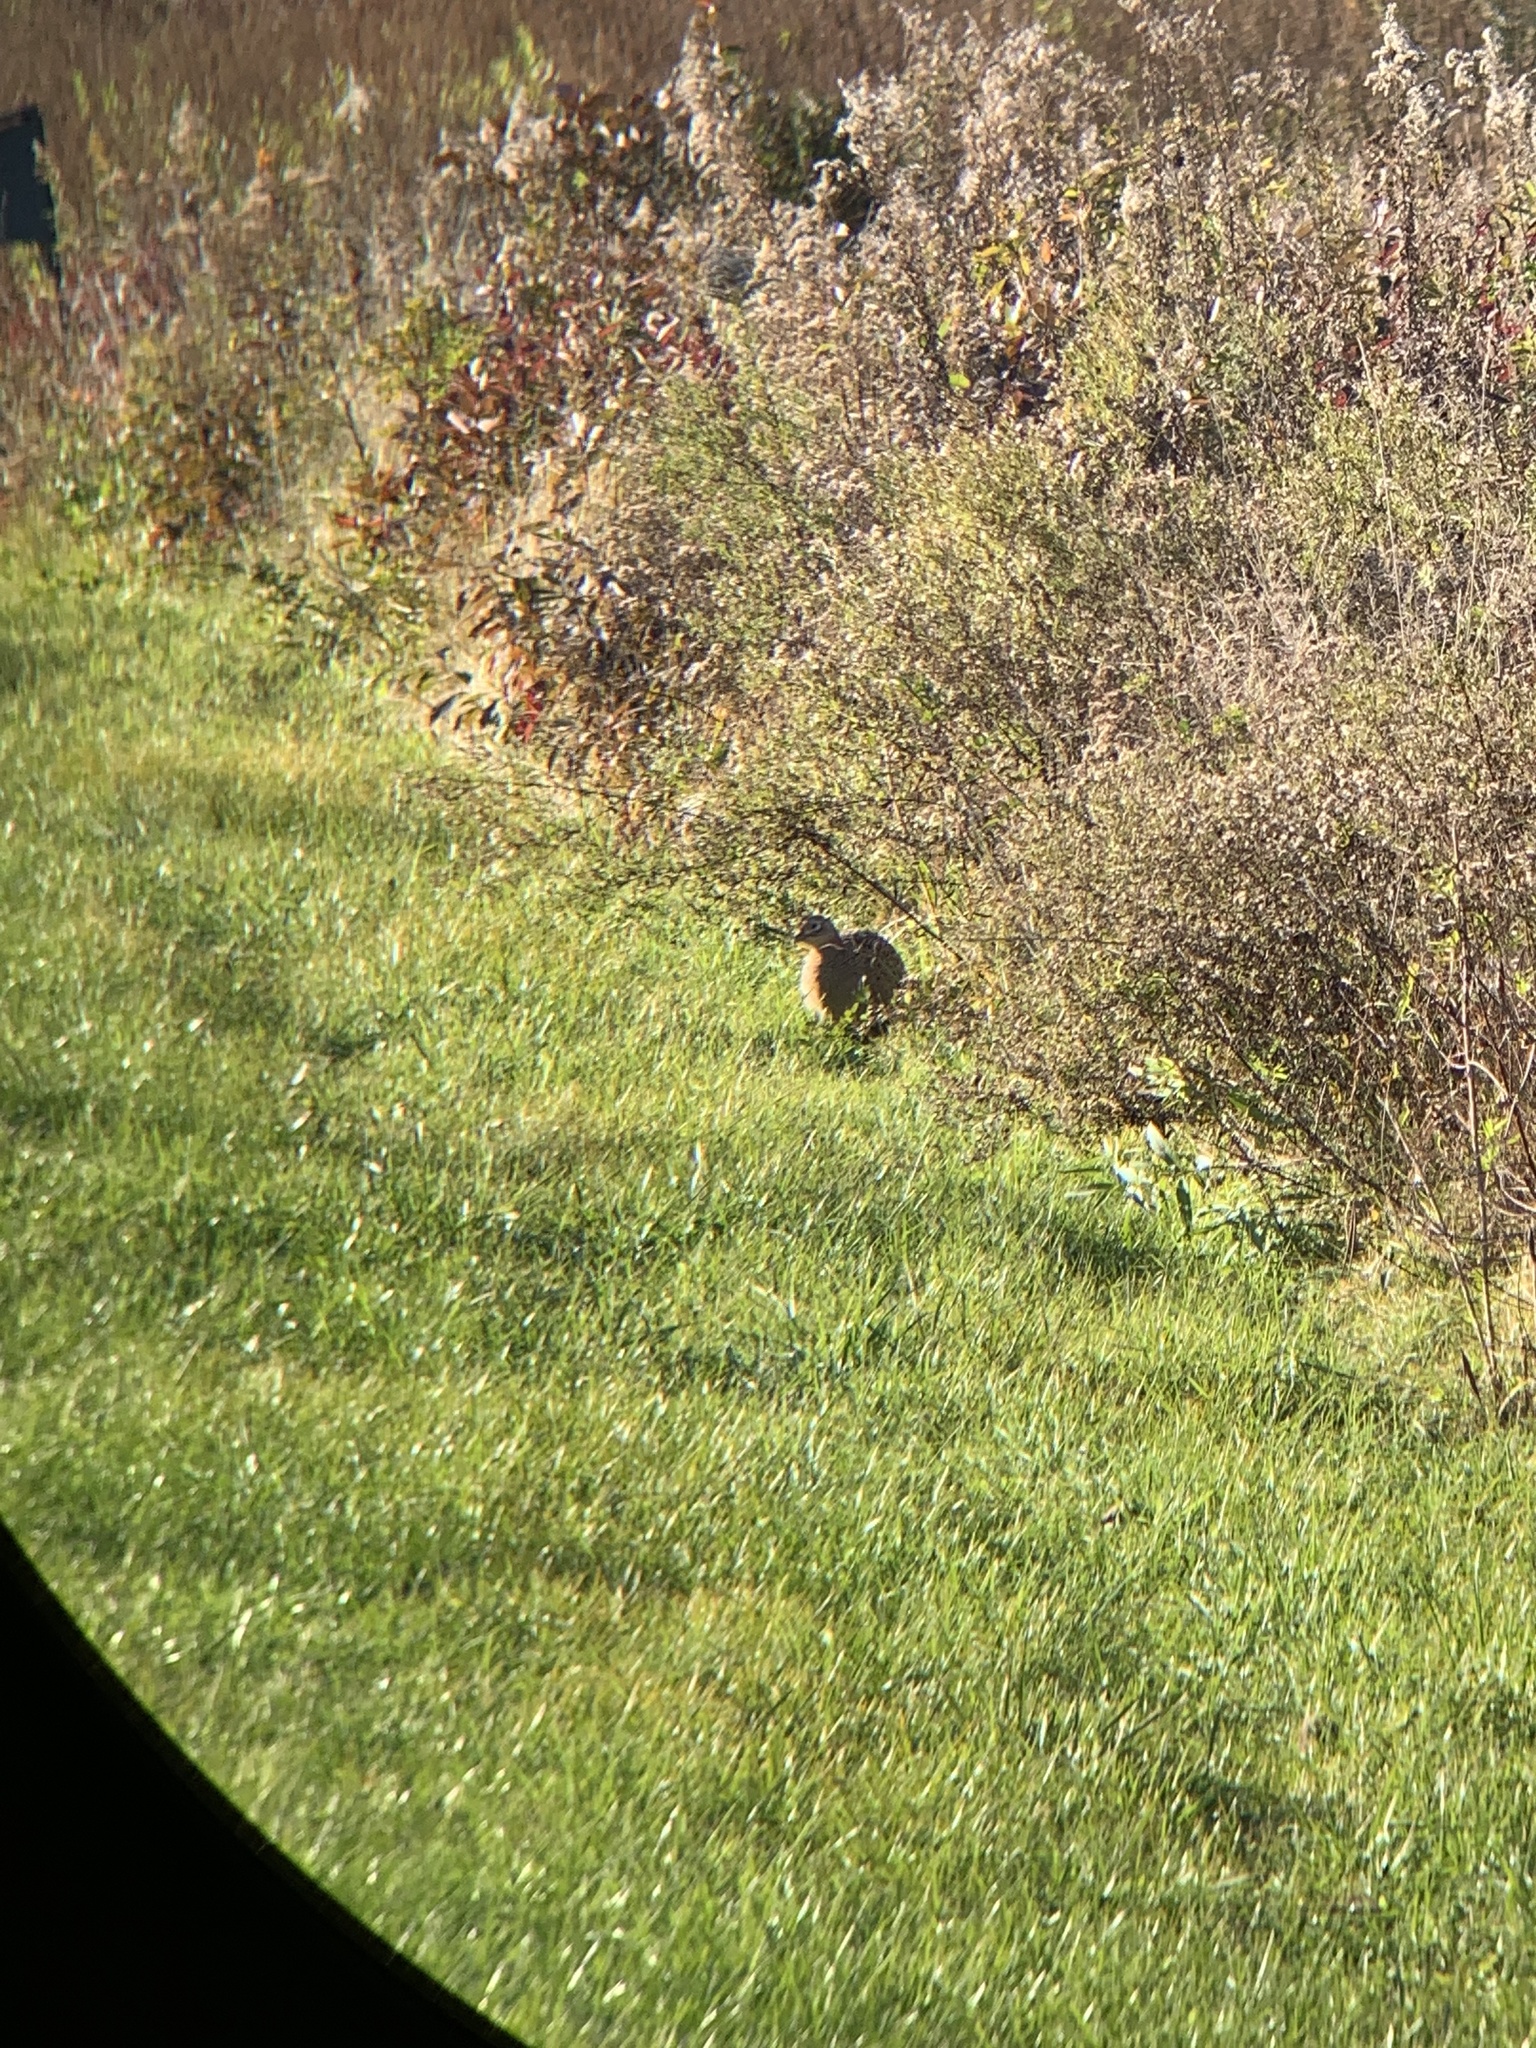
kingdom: Animalia
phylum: Chordata
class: Aves
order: Galliformes
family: Phasianidae
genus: Phasianus
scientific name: Phasianus colchicus
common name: Common pheasant
